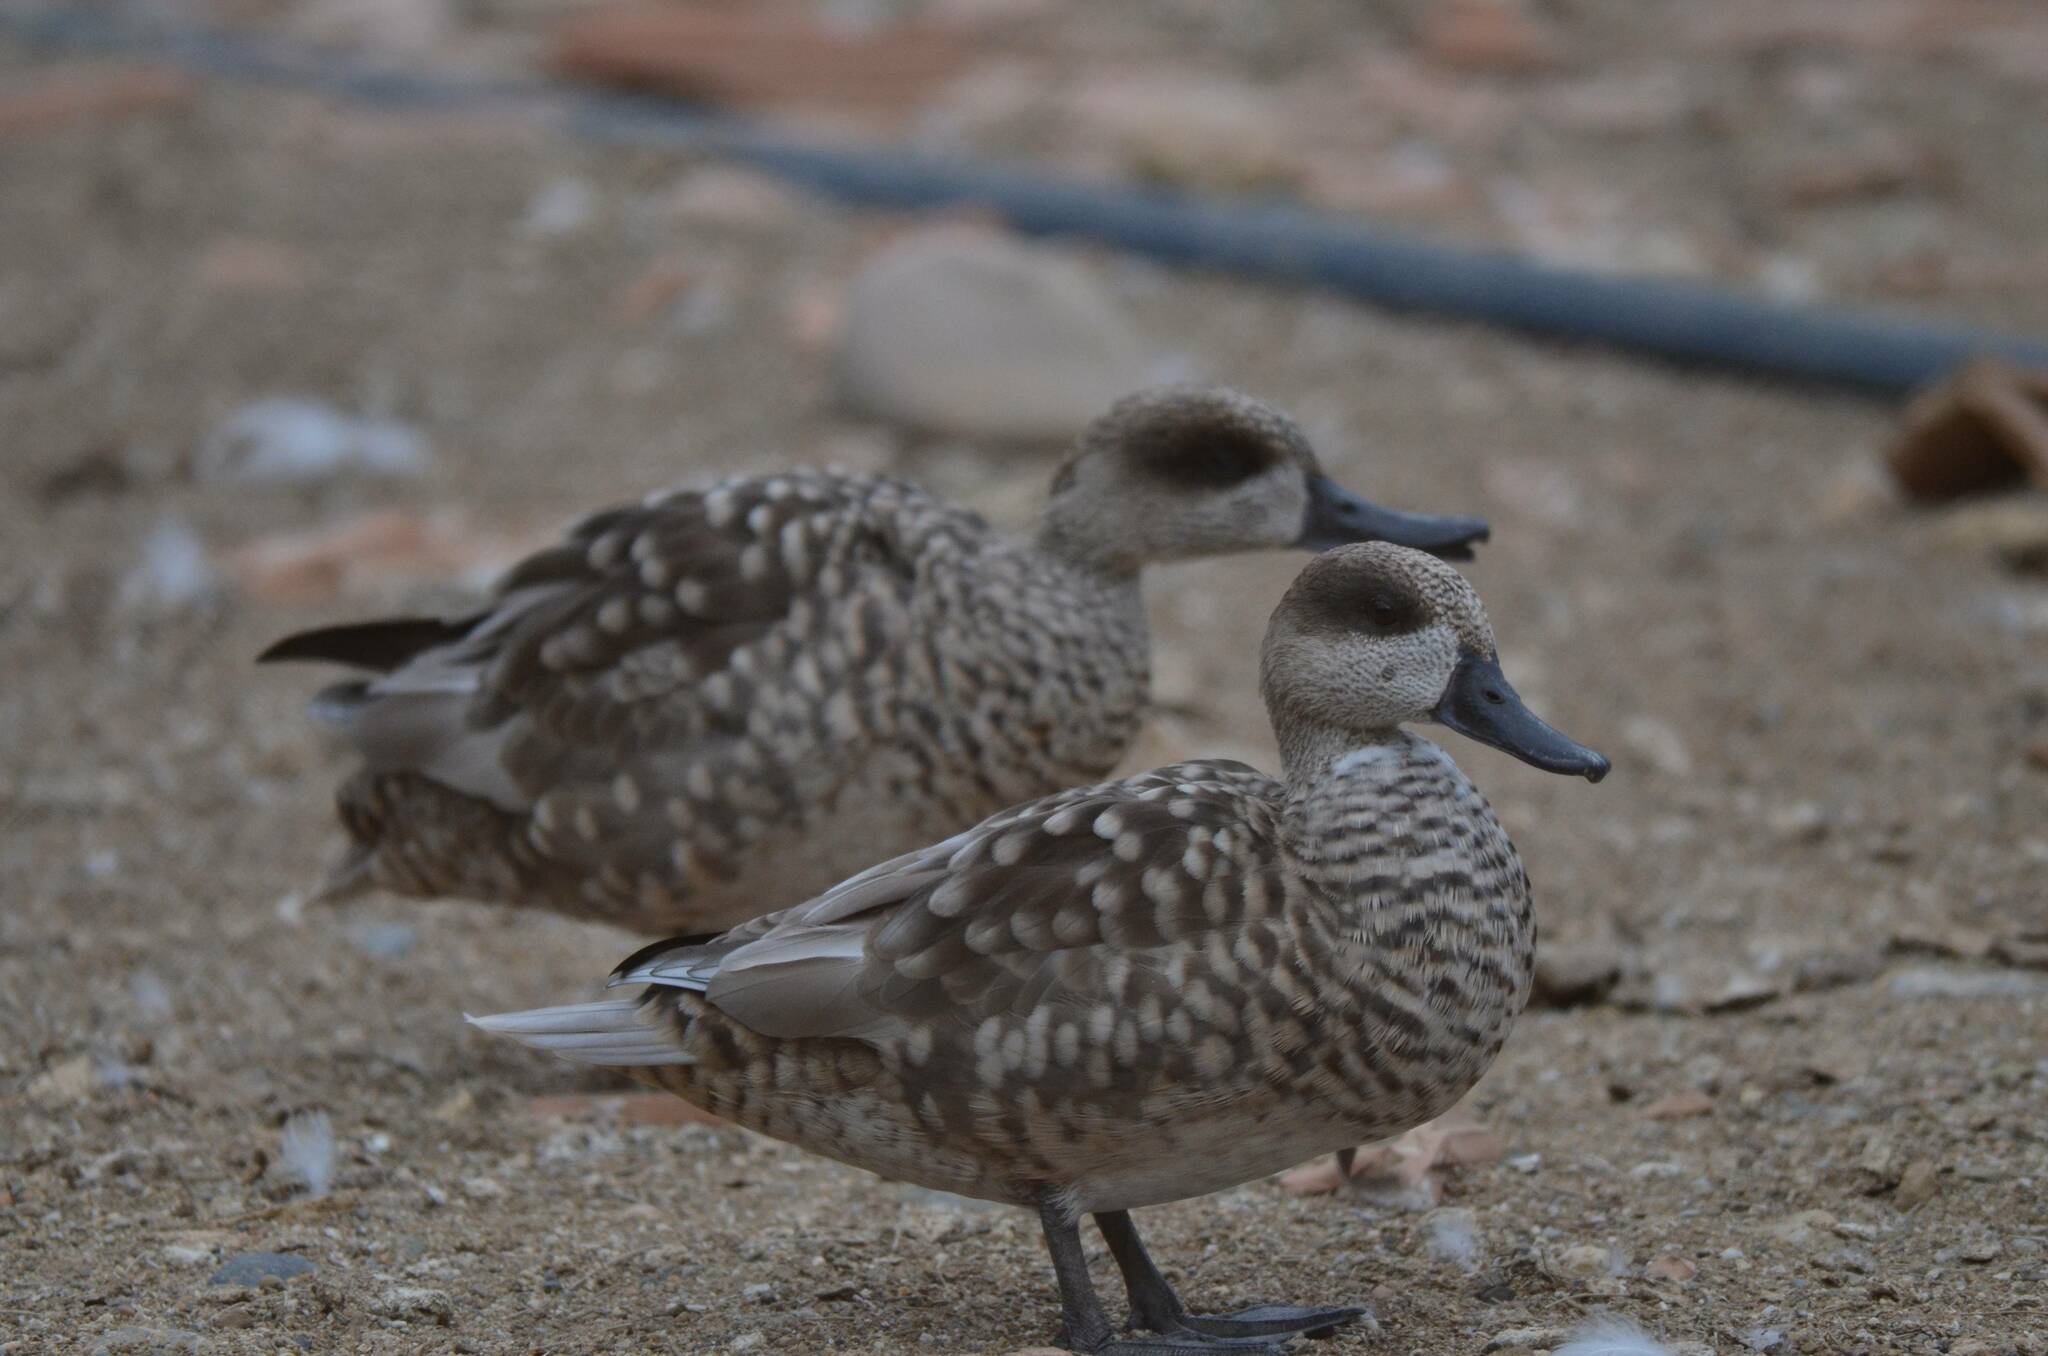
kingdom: Animalia
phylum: Chordata
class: Aves
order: Anseriformes
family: Anatidae
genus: Marmaronetta
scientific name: Marmaronetta angustirostris
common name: Marbled duck
